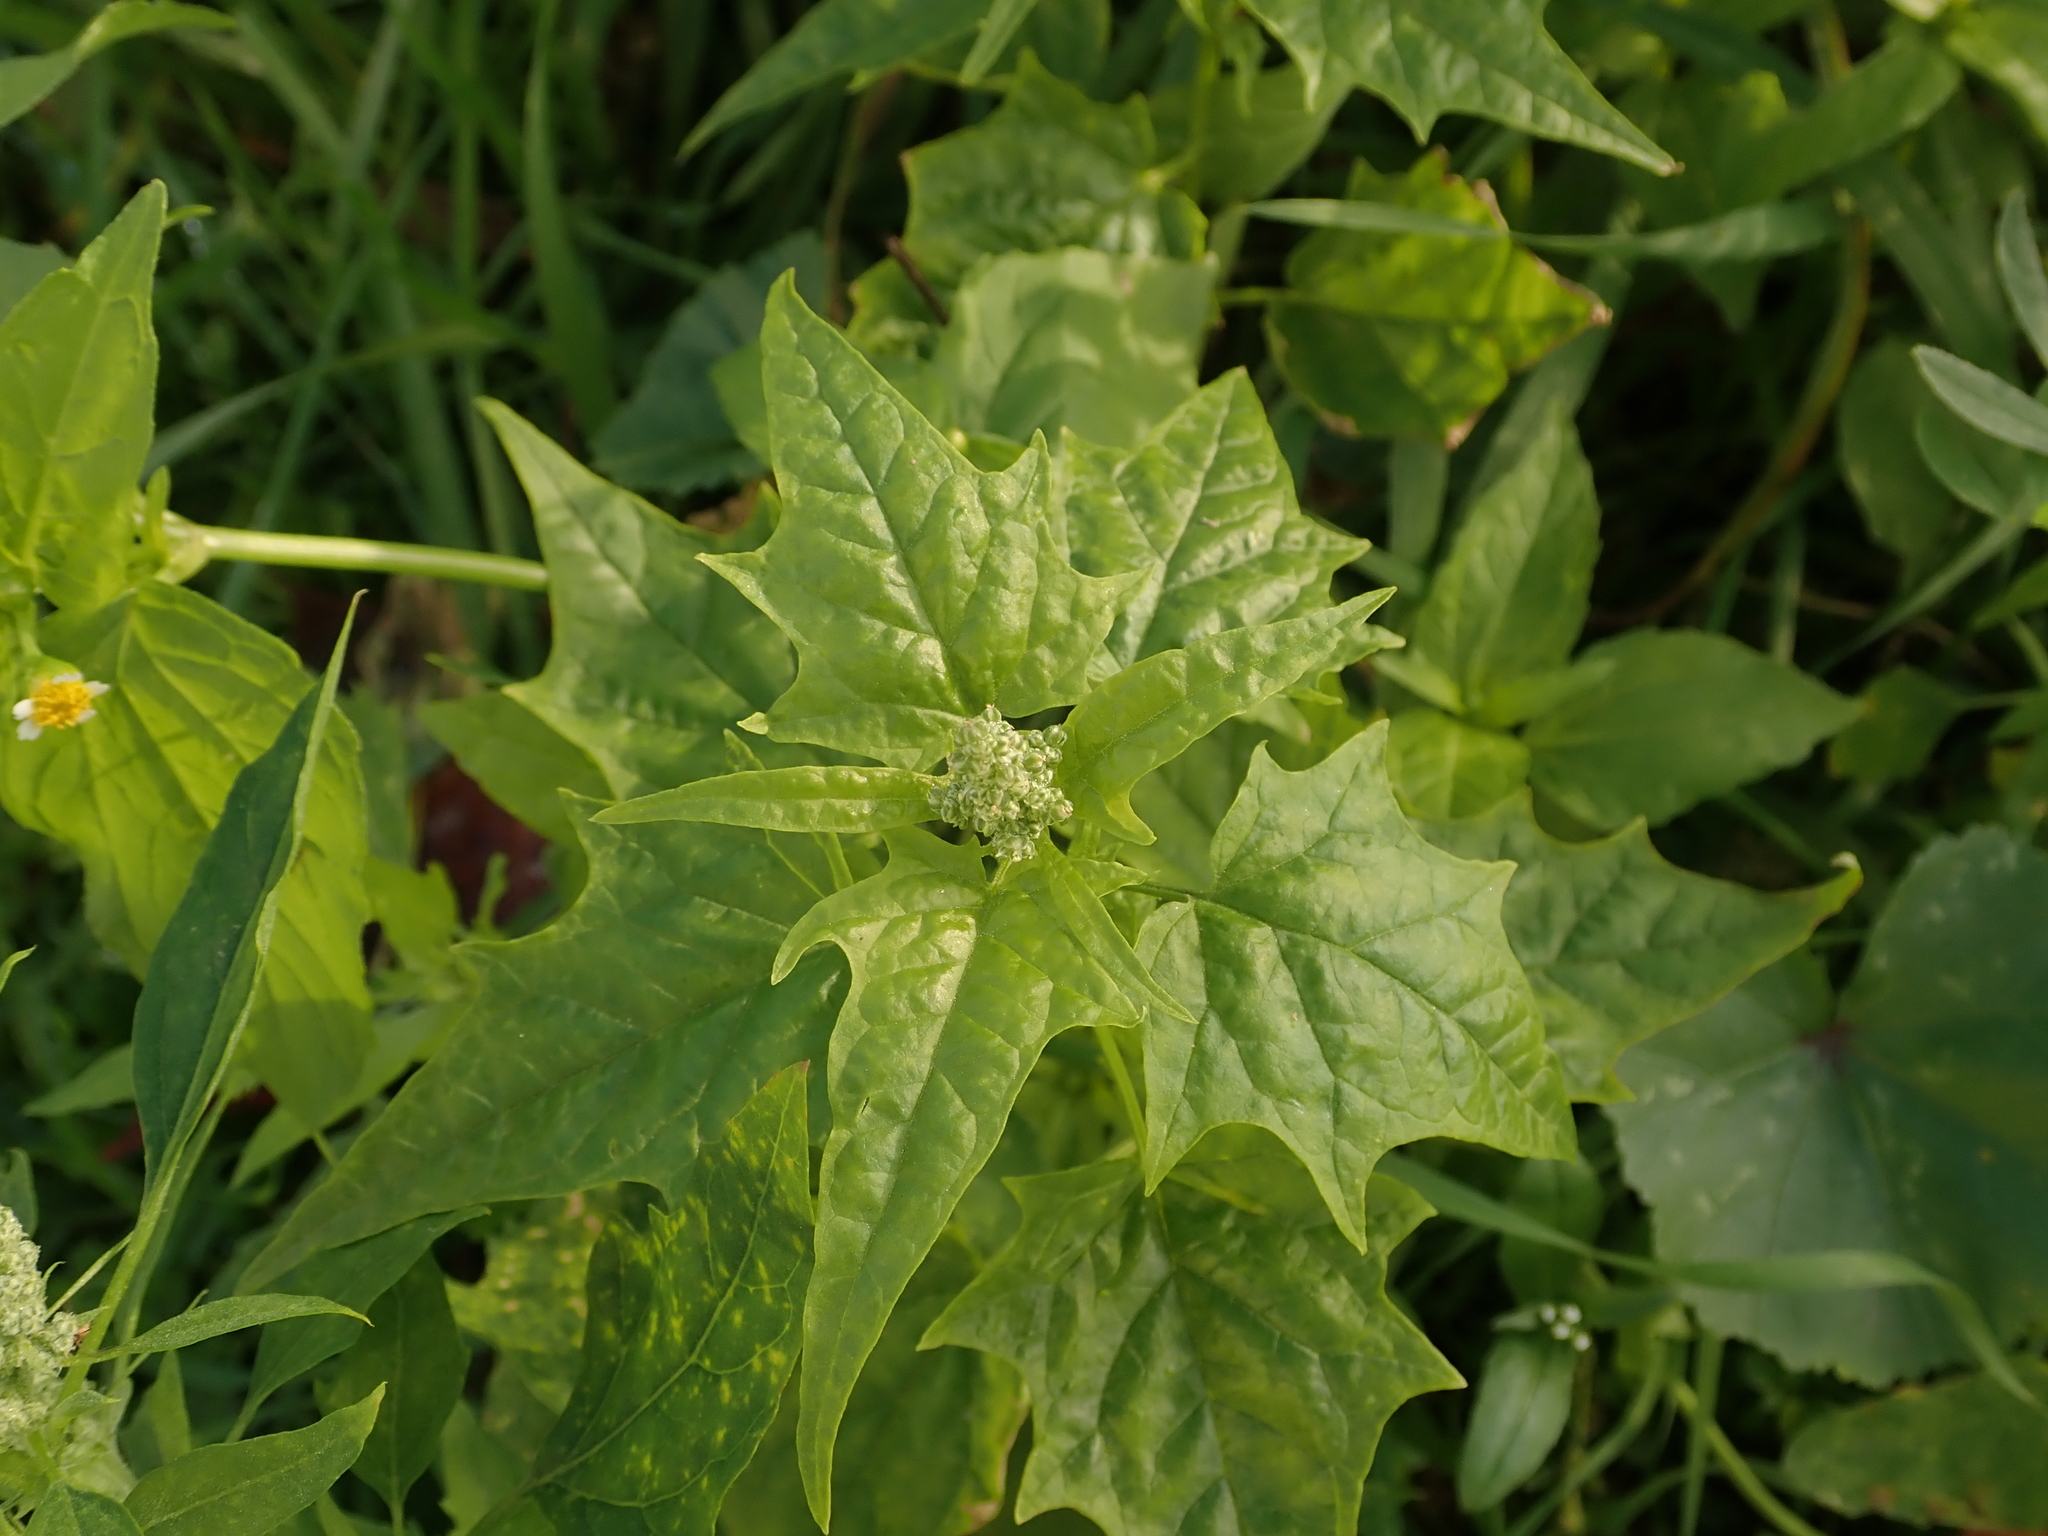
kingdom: Plantae
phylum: Tracheophyta
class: Magnoliopsida
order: Caryophyllales
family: Amaranthaceae
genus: Chenopodiastrum
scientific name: Chenopodiastrum hybridum
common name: Mapleleaf goosefoot
